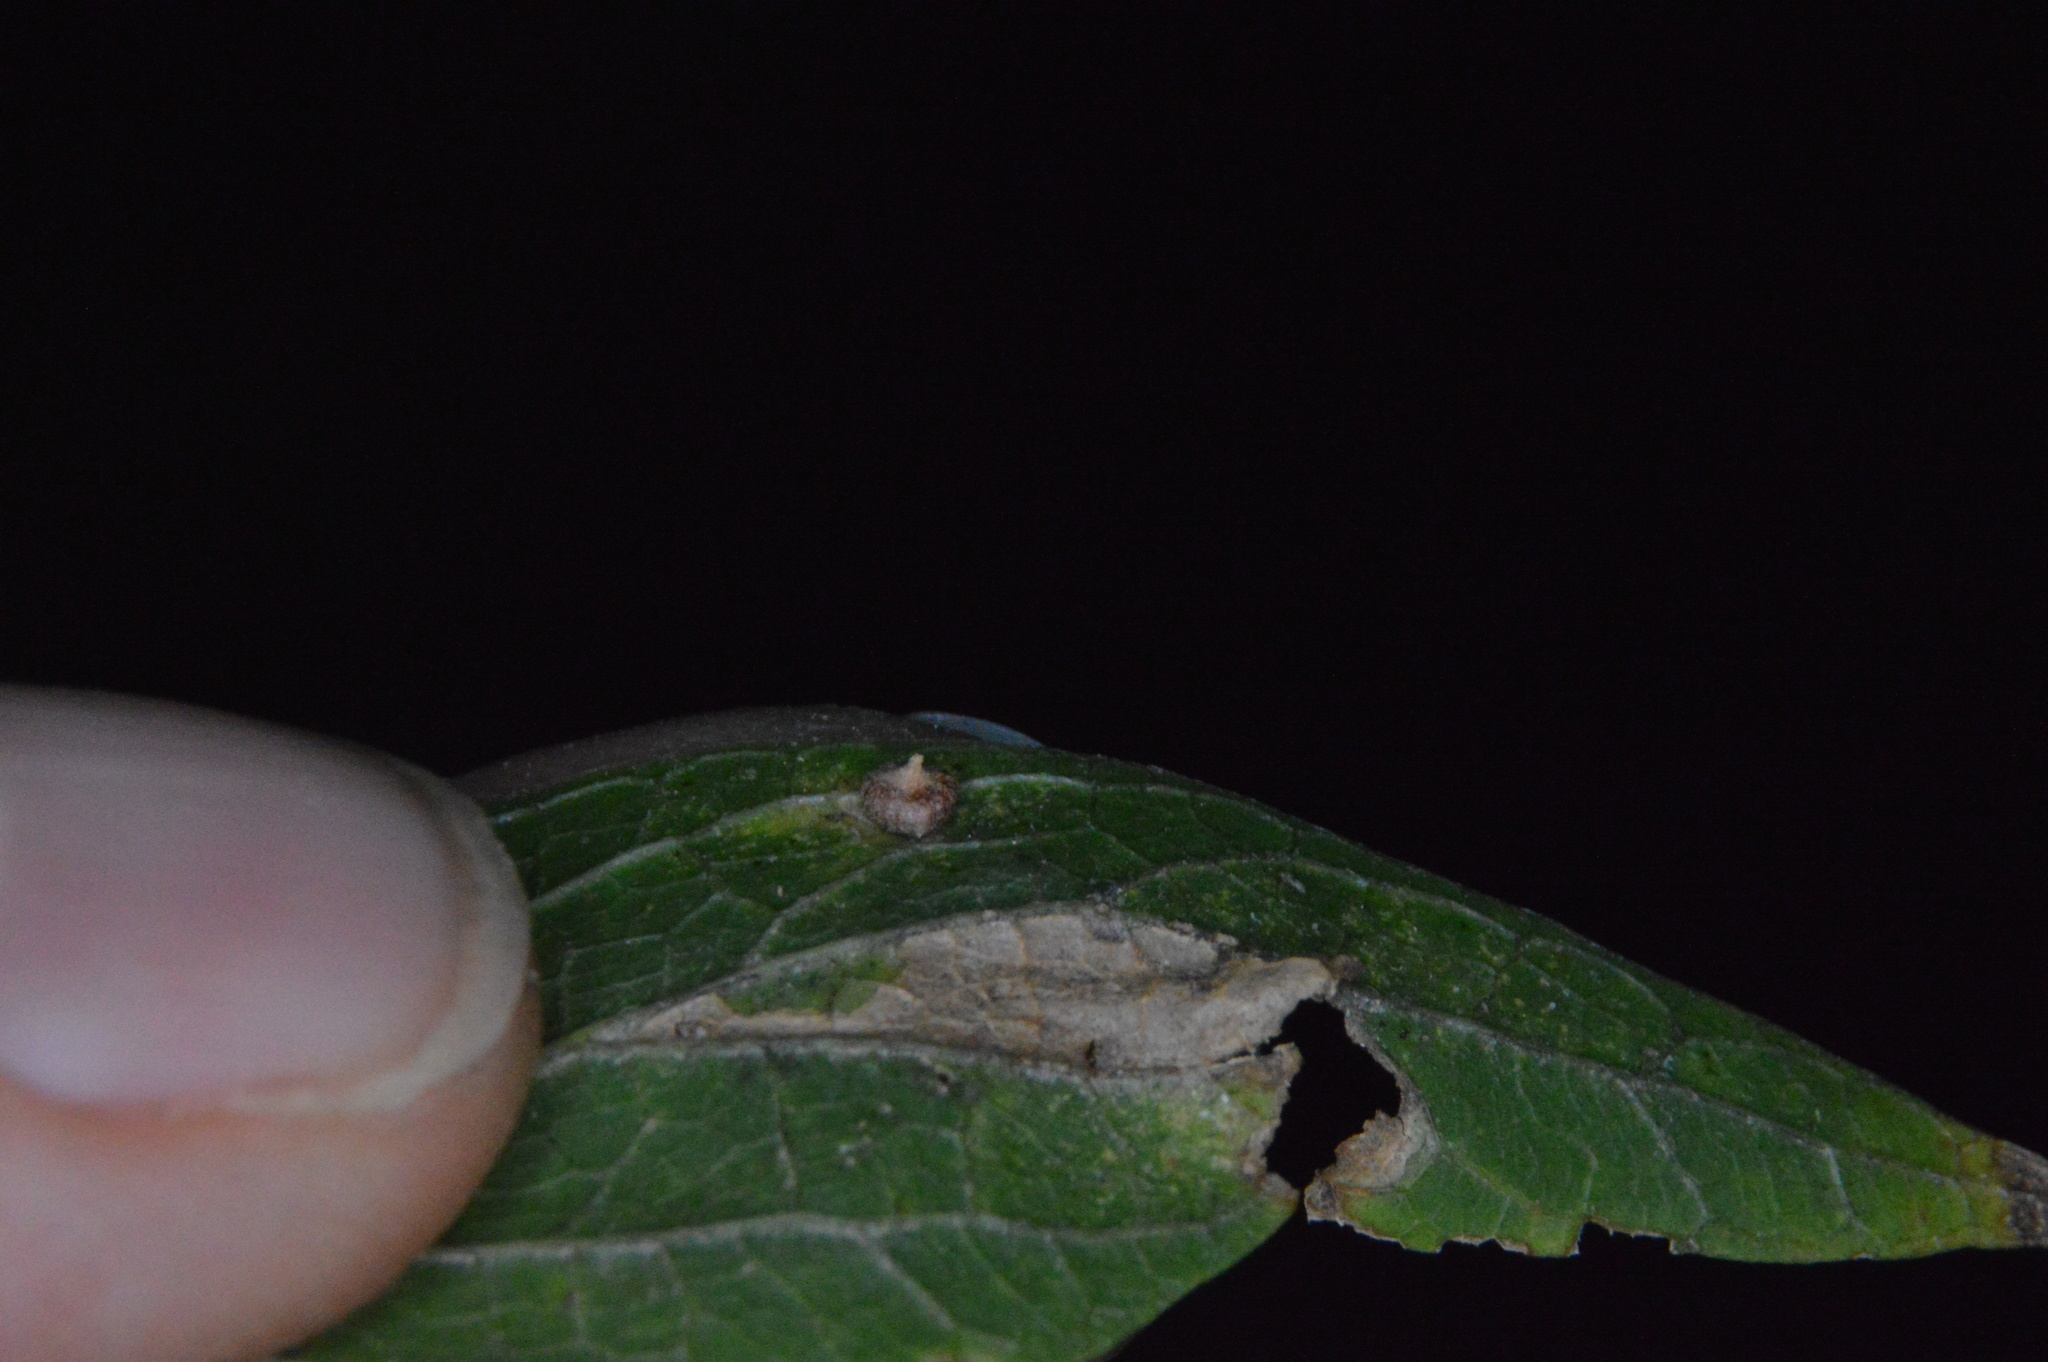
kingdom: Animalia
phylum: Arthropoda
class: Insecta
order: Diptera
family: Cecidomyiidae
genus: Celticecis
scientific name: Celticecis capsularis
